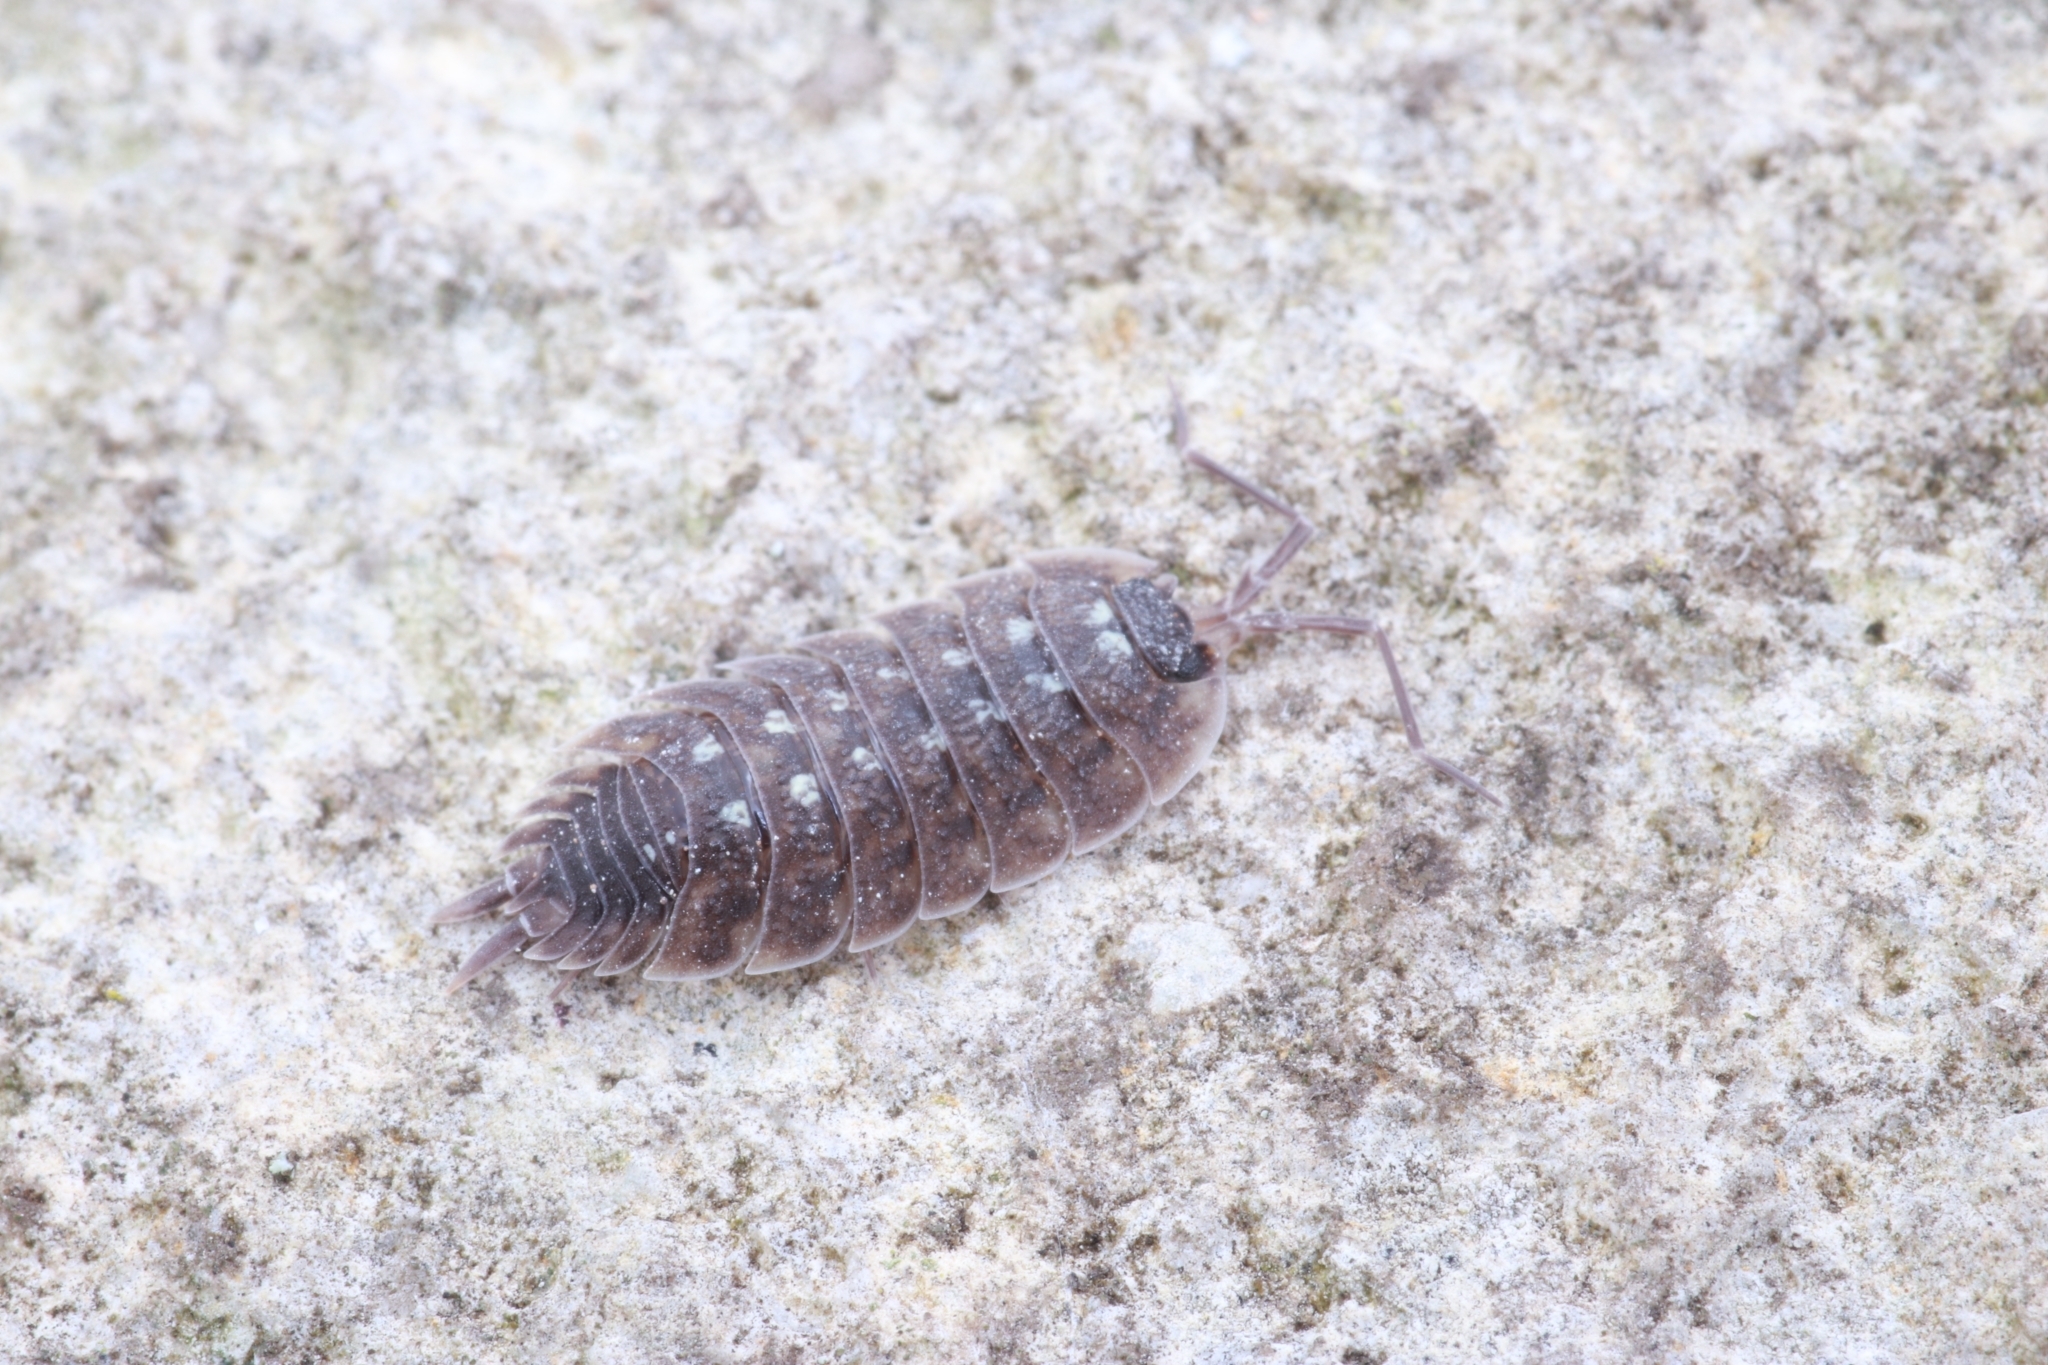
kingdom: Animalia
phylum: Arthropoda
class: Malacostraca
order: Isopoda
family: Porcellionidae
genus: Porcellio
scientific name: Porcellio spinicornis
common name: Painted woodlouse
